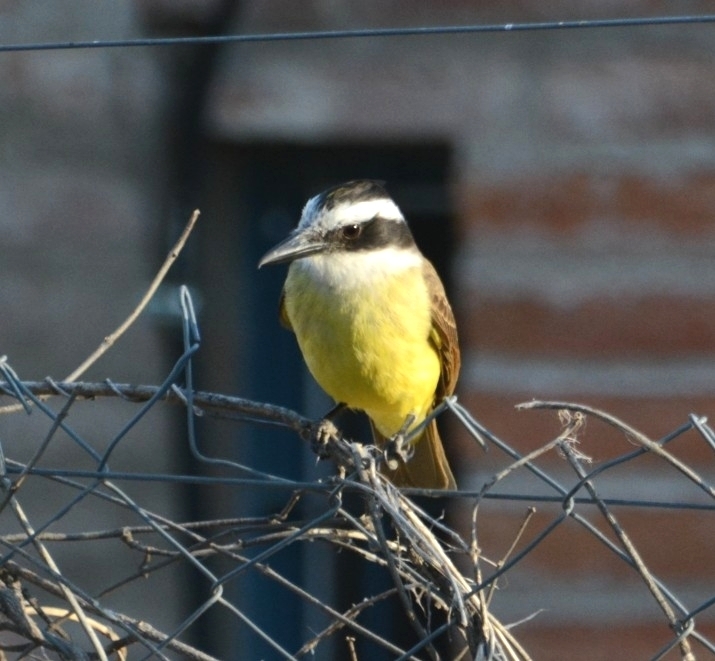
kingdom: Animalia
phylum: Chordata
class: Aves
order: Passeriformes
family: Tyrannidae
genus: Pitangus
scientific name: Pitangus sulphuratus
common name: Great kiskadee
